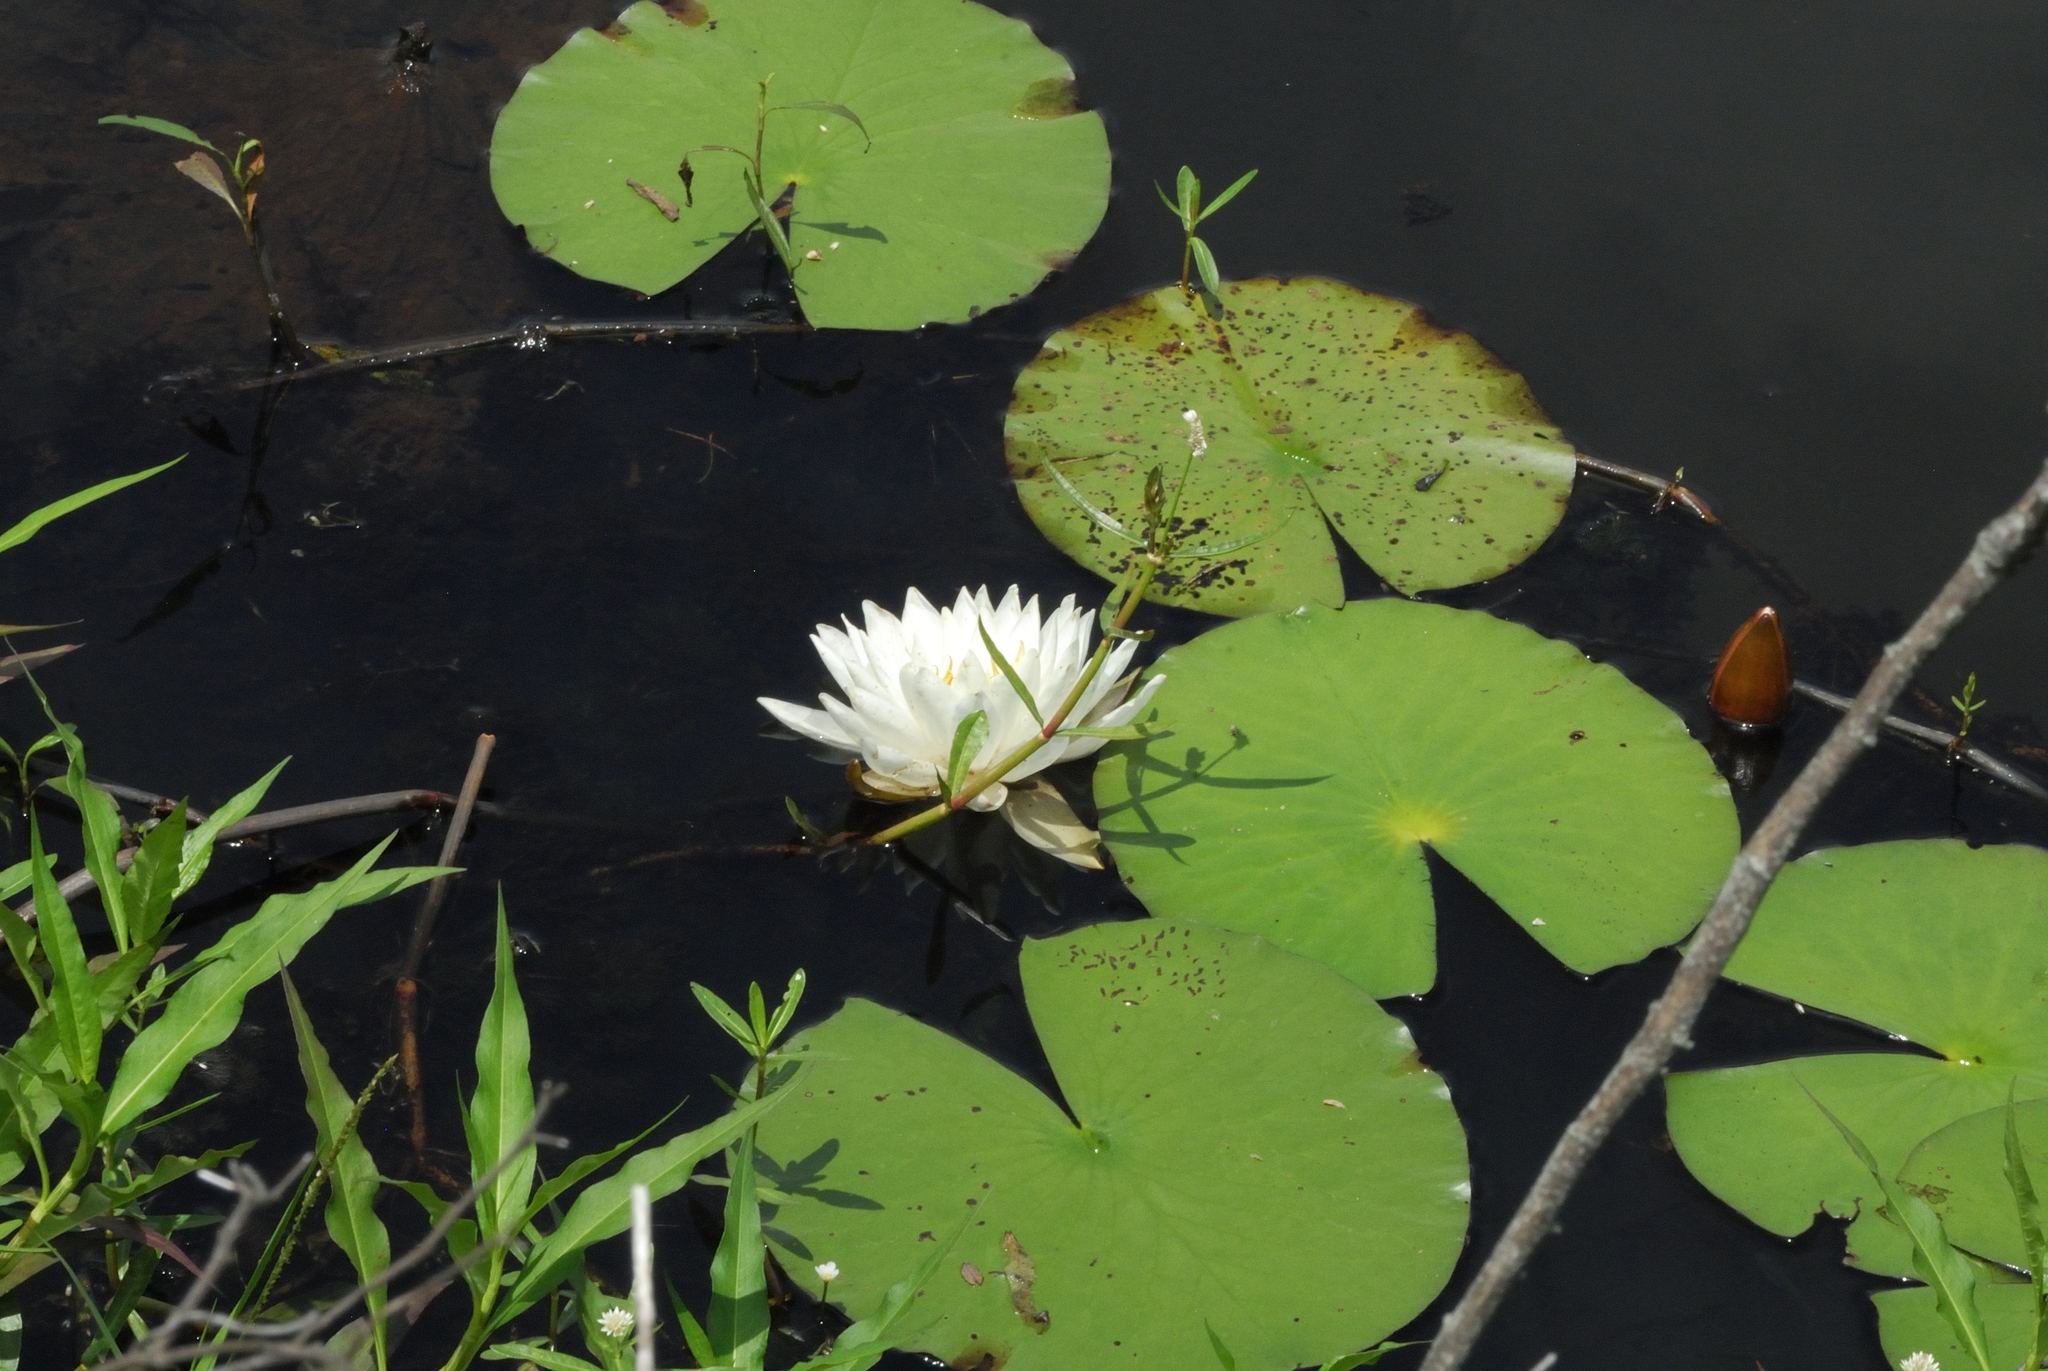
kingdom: Plantae
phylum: Tracheophyta
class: Magnoliopsida
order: Nymphaeales
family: Nymphaeaceae
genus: Nymphaea
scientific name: Nymphaea odorata
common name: Fragrant water-lily
